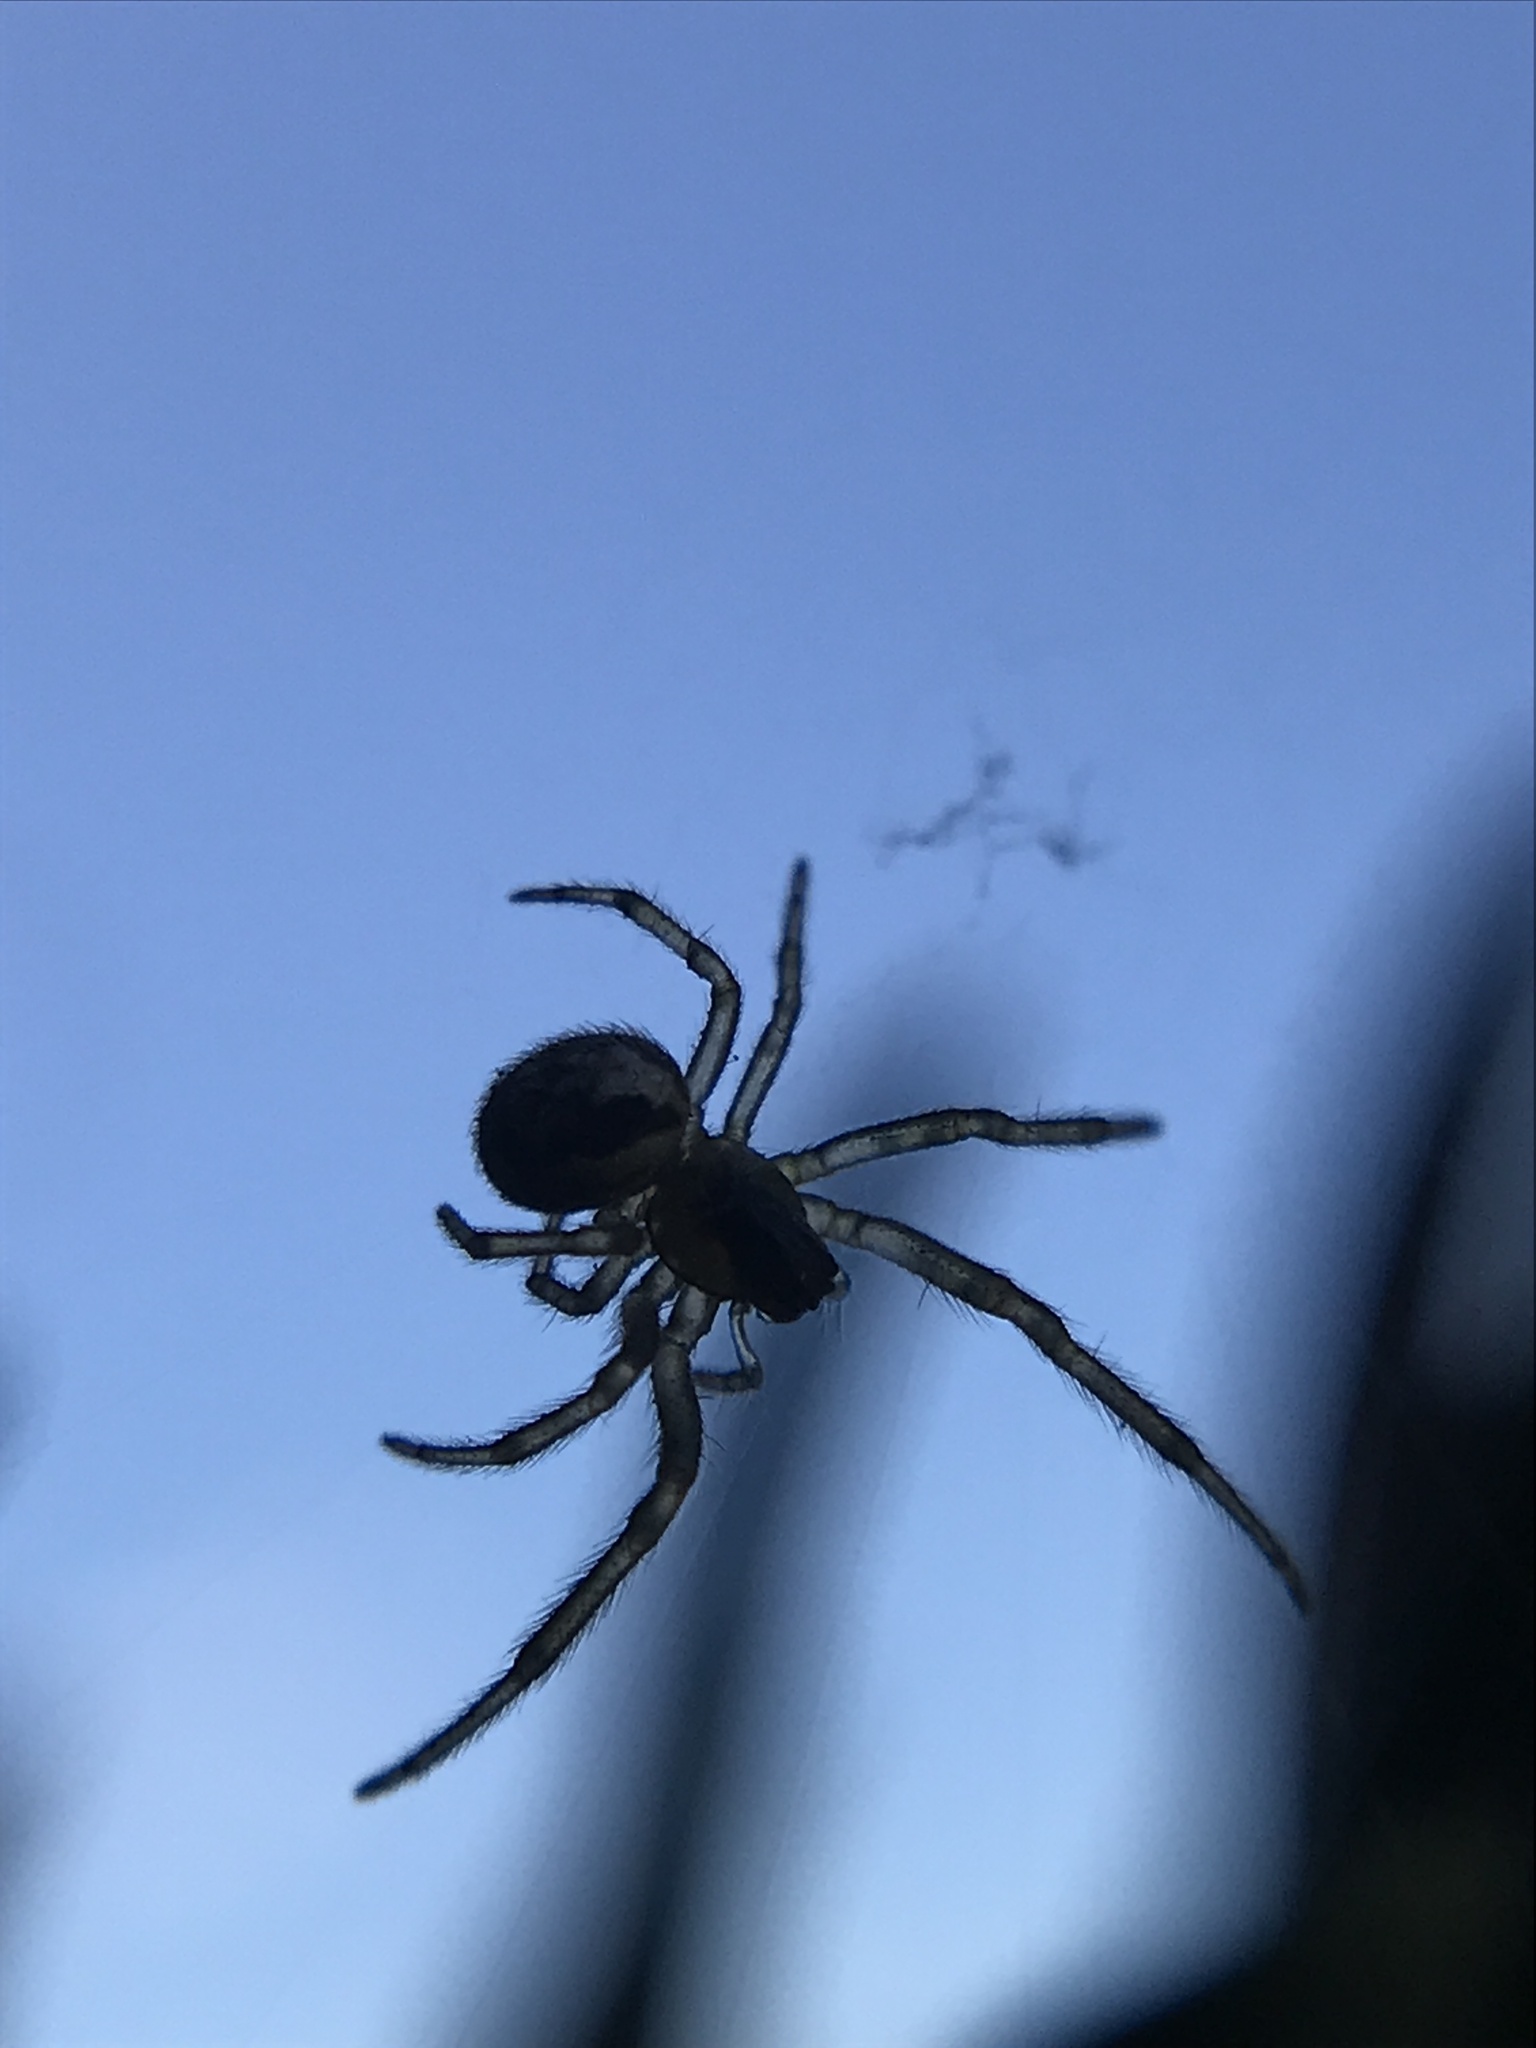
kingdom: Animalia
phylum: Arthropoda
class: Arachnida
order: Araneae
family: Araneidae
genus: Zygiella
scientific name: Zygiella x-notata
